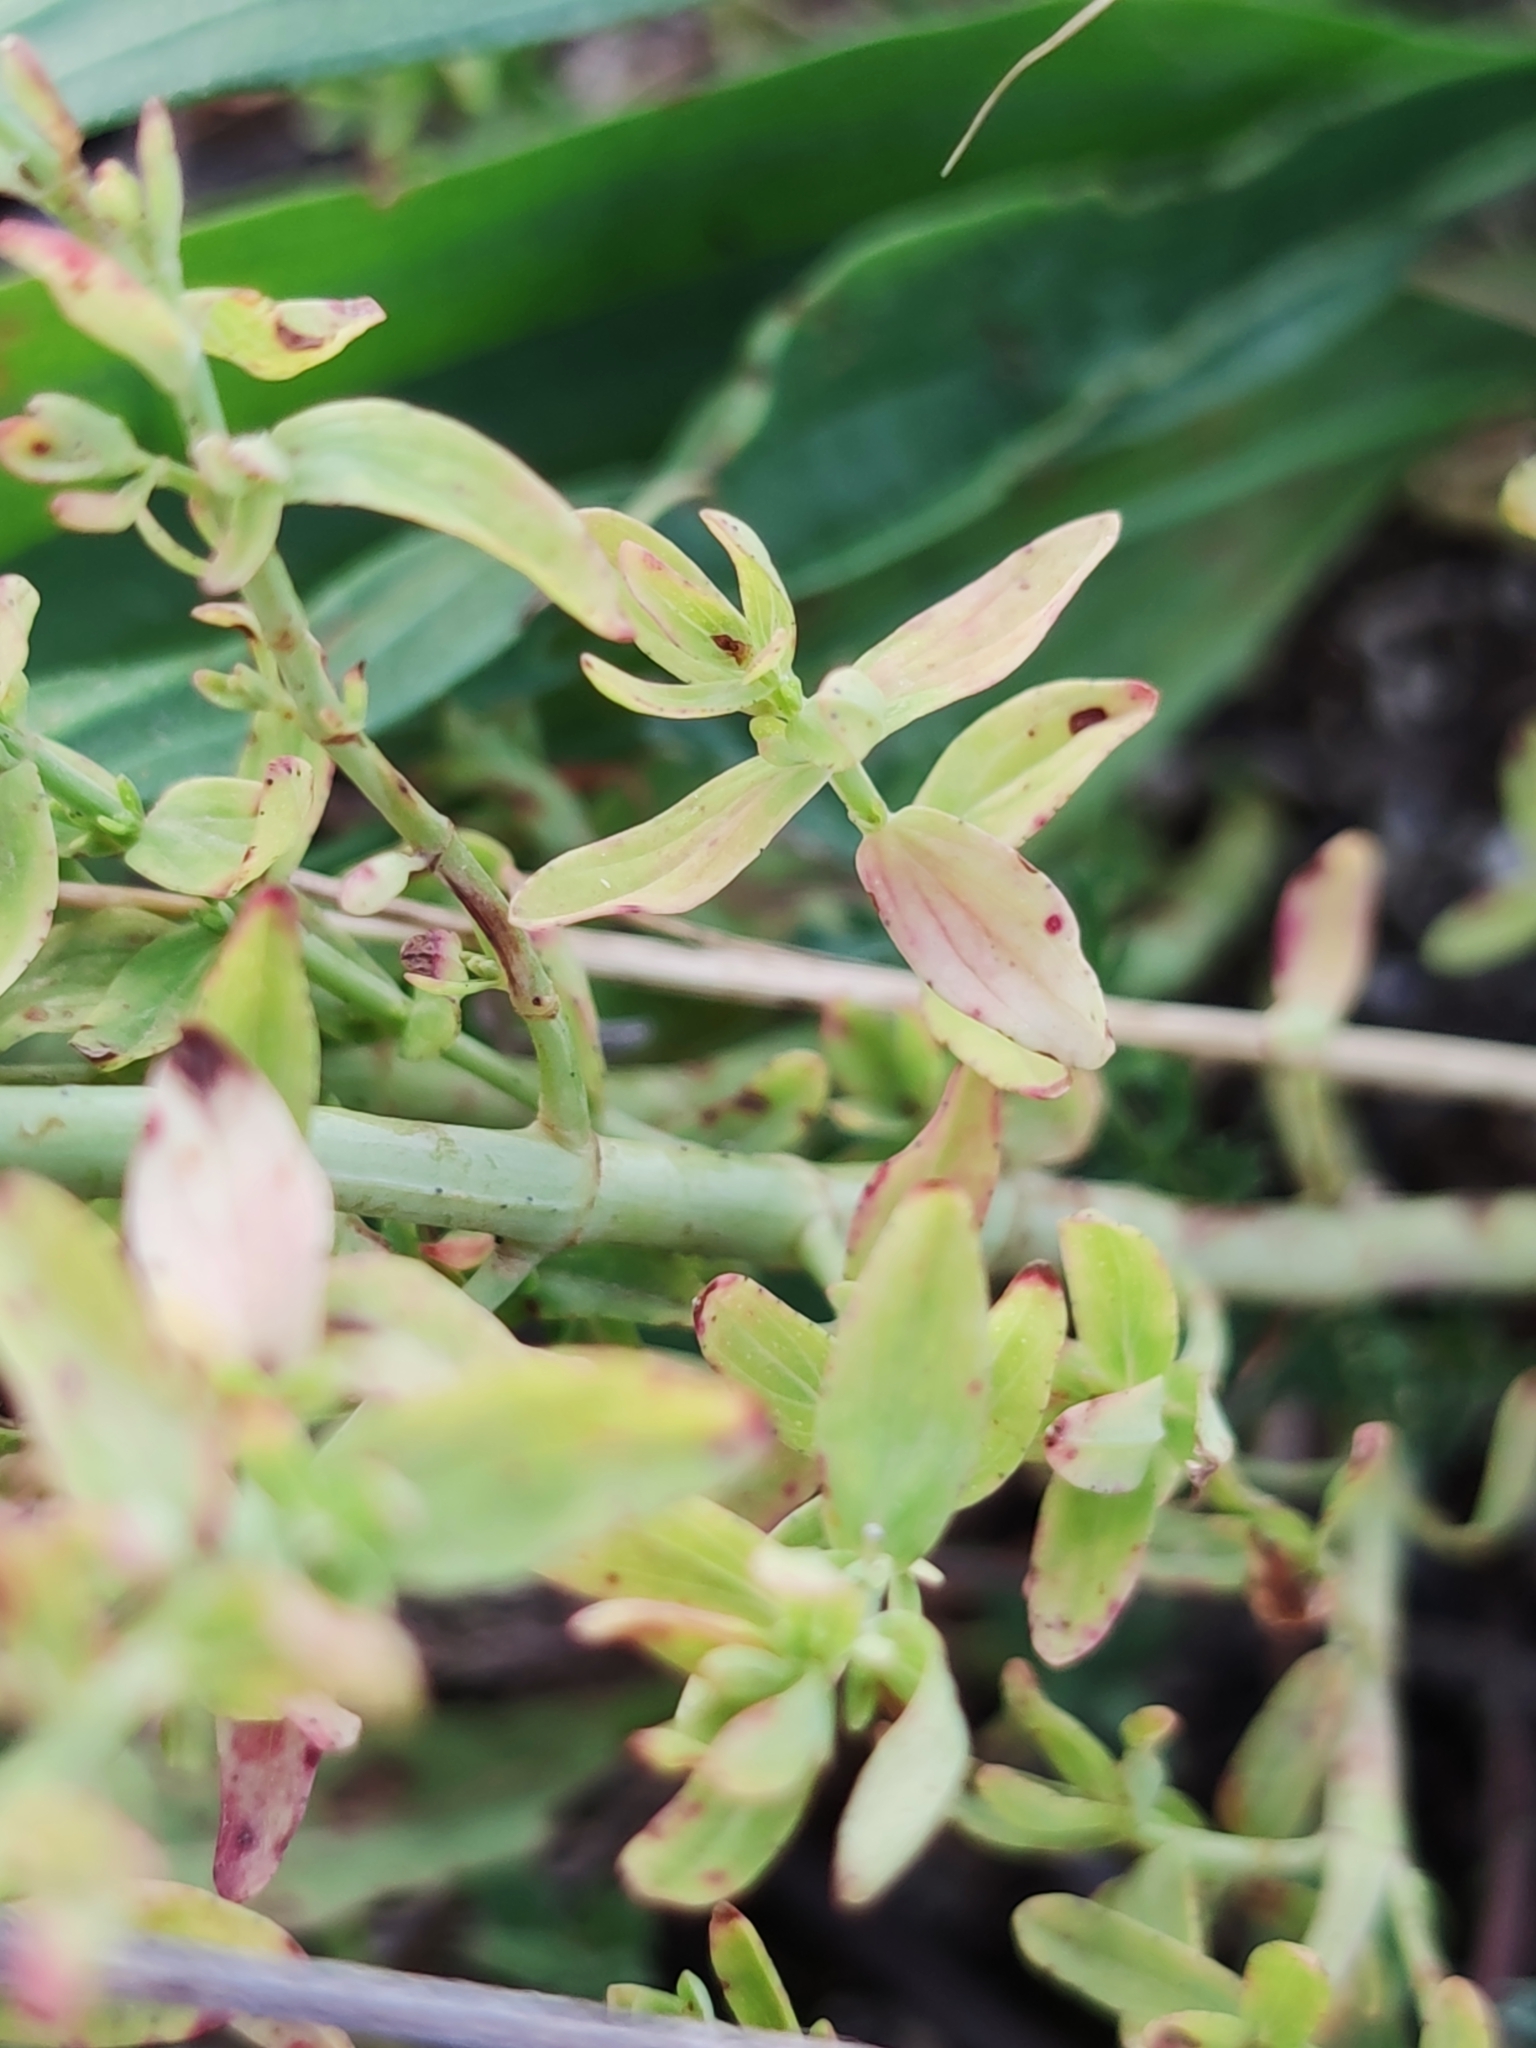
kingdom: Plantae
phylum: Tracheophyta
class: Magnoliopsida
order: Malpighiales
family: Hypericaceae
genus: Hypericum
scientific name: Hypericum perforatum
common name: Common st. johnswort
